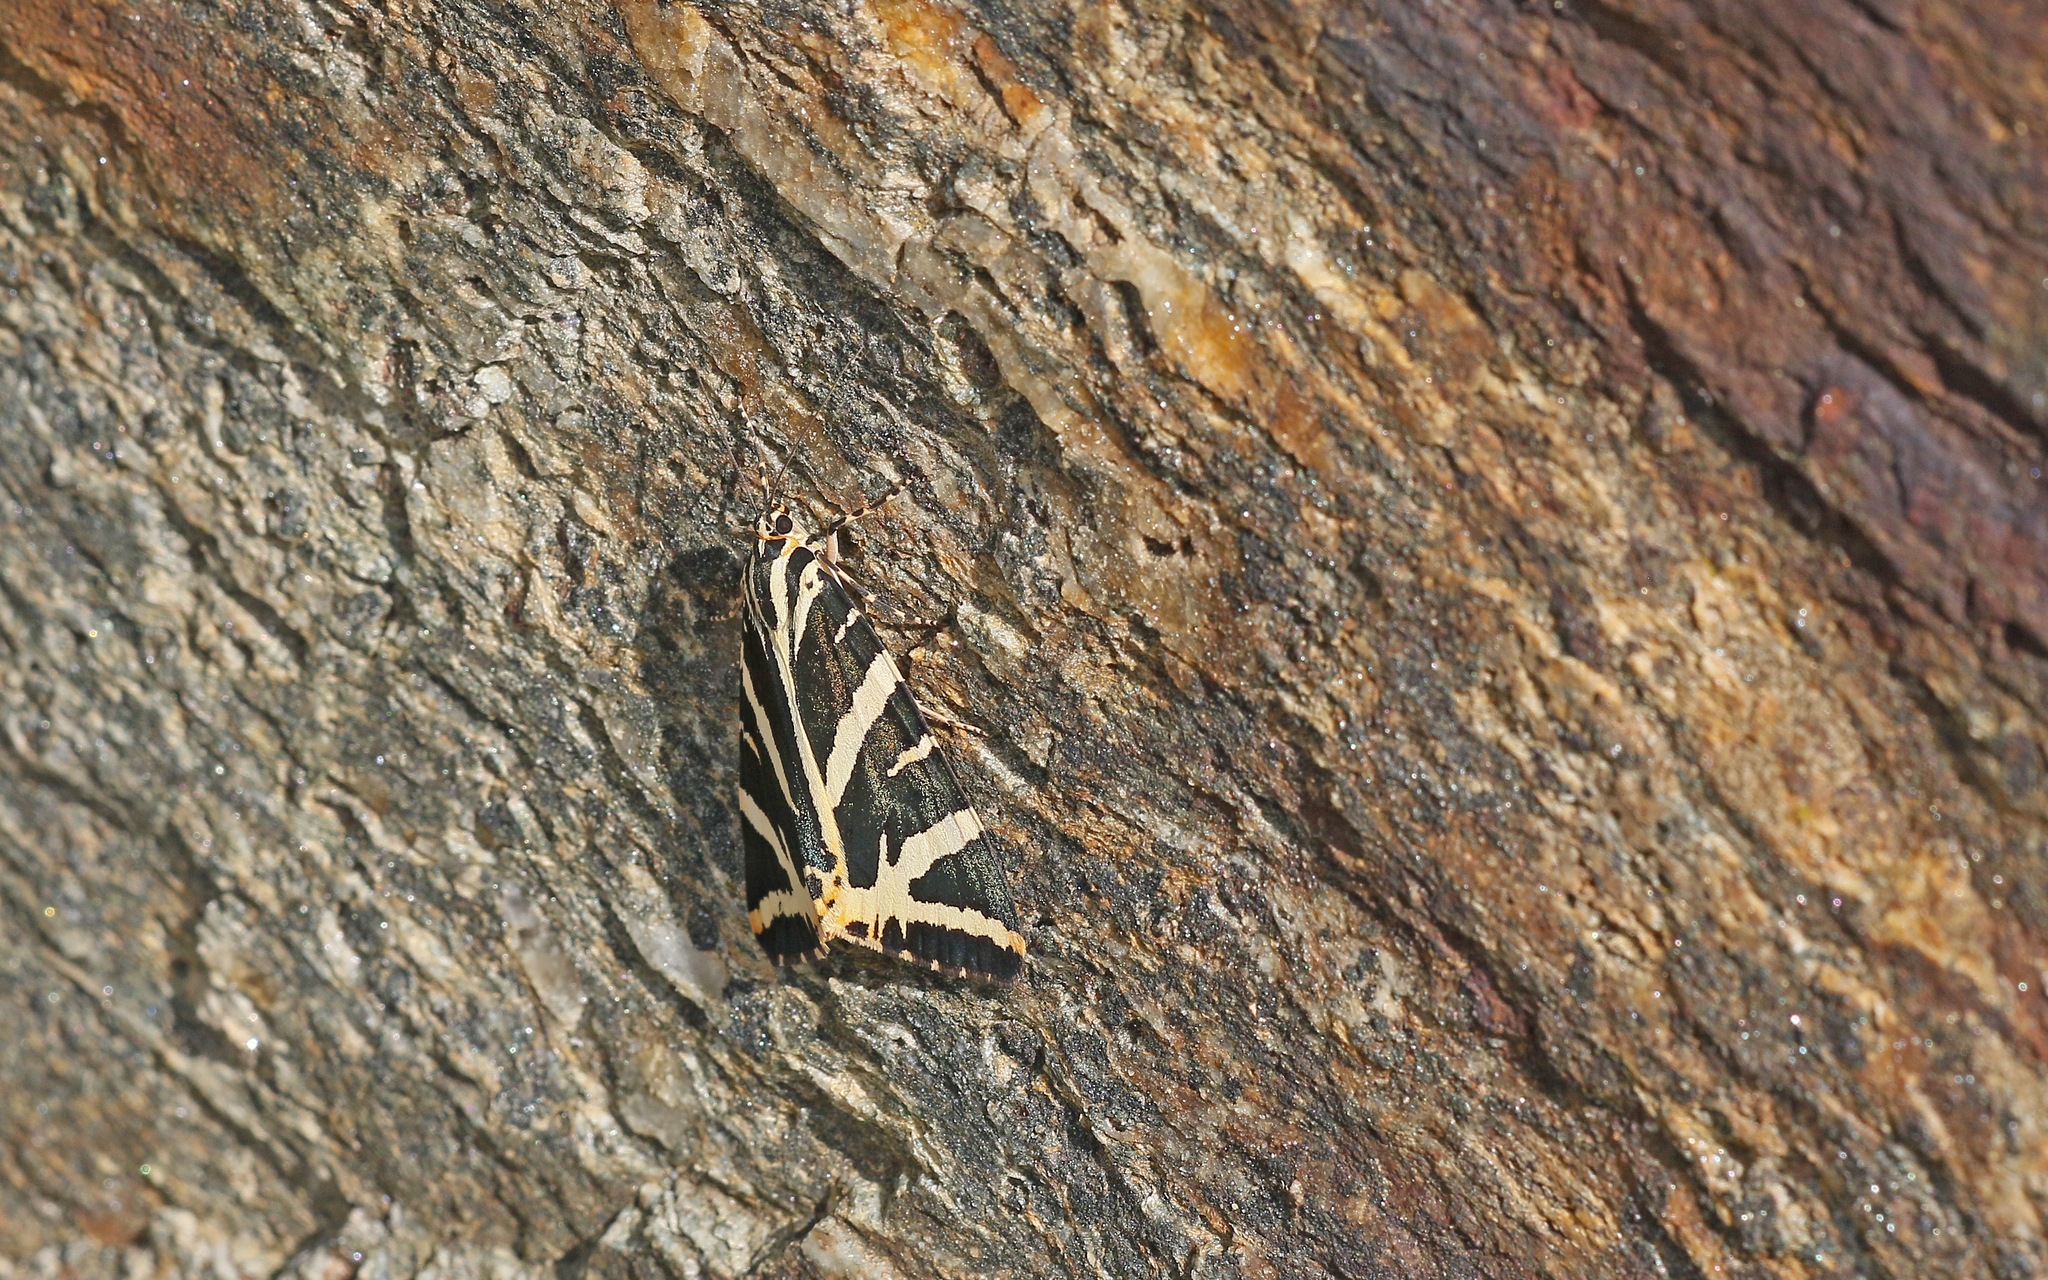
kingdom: Animalia
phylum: Arthropoda
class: Insecta
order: Lepidoptera
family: Erebidae
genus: Euplagia
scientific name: Euplagia quadripunctaria
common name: Jersey tiger
